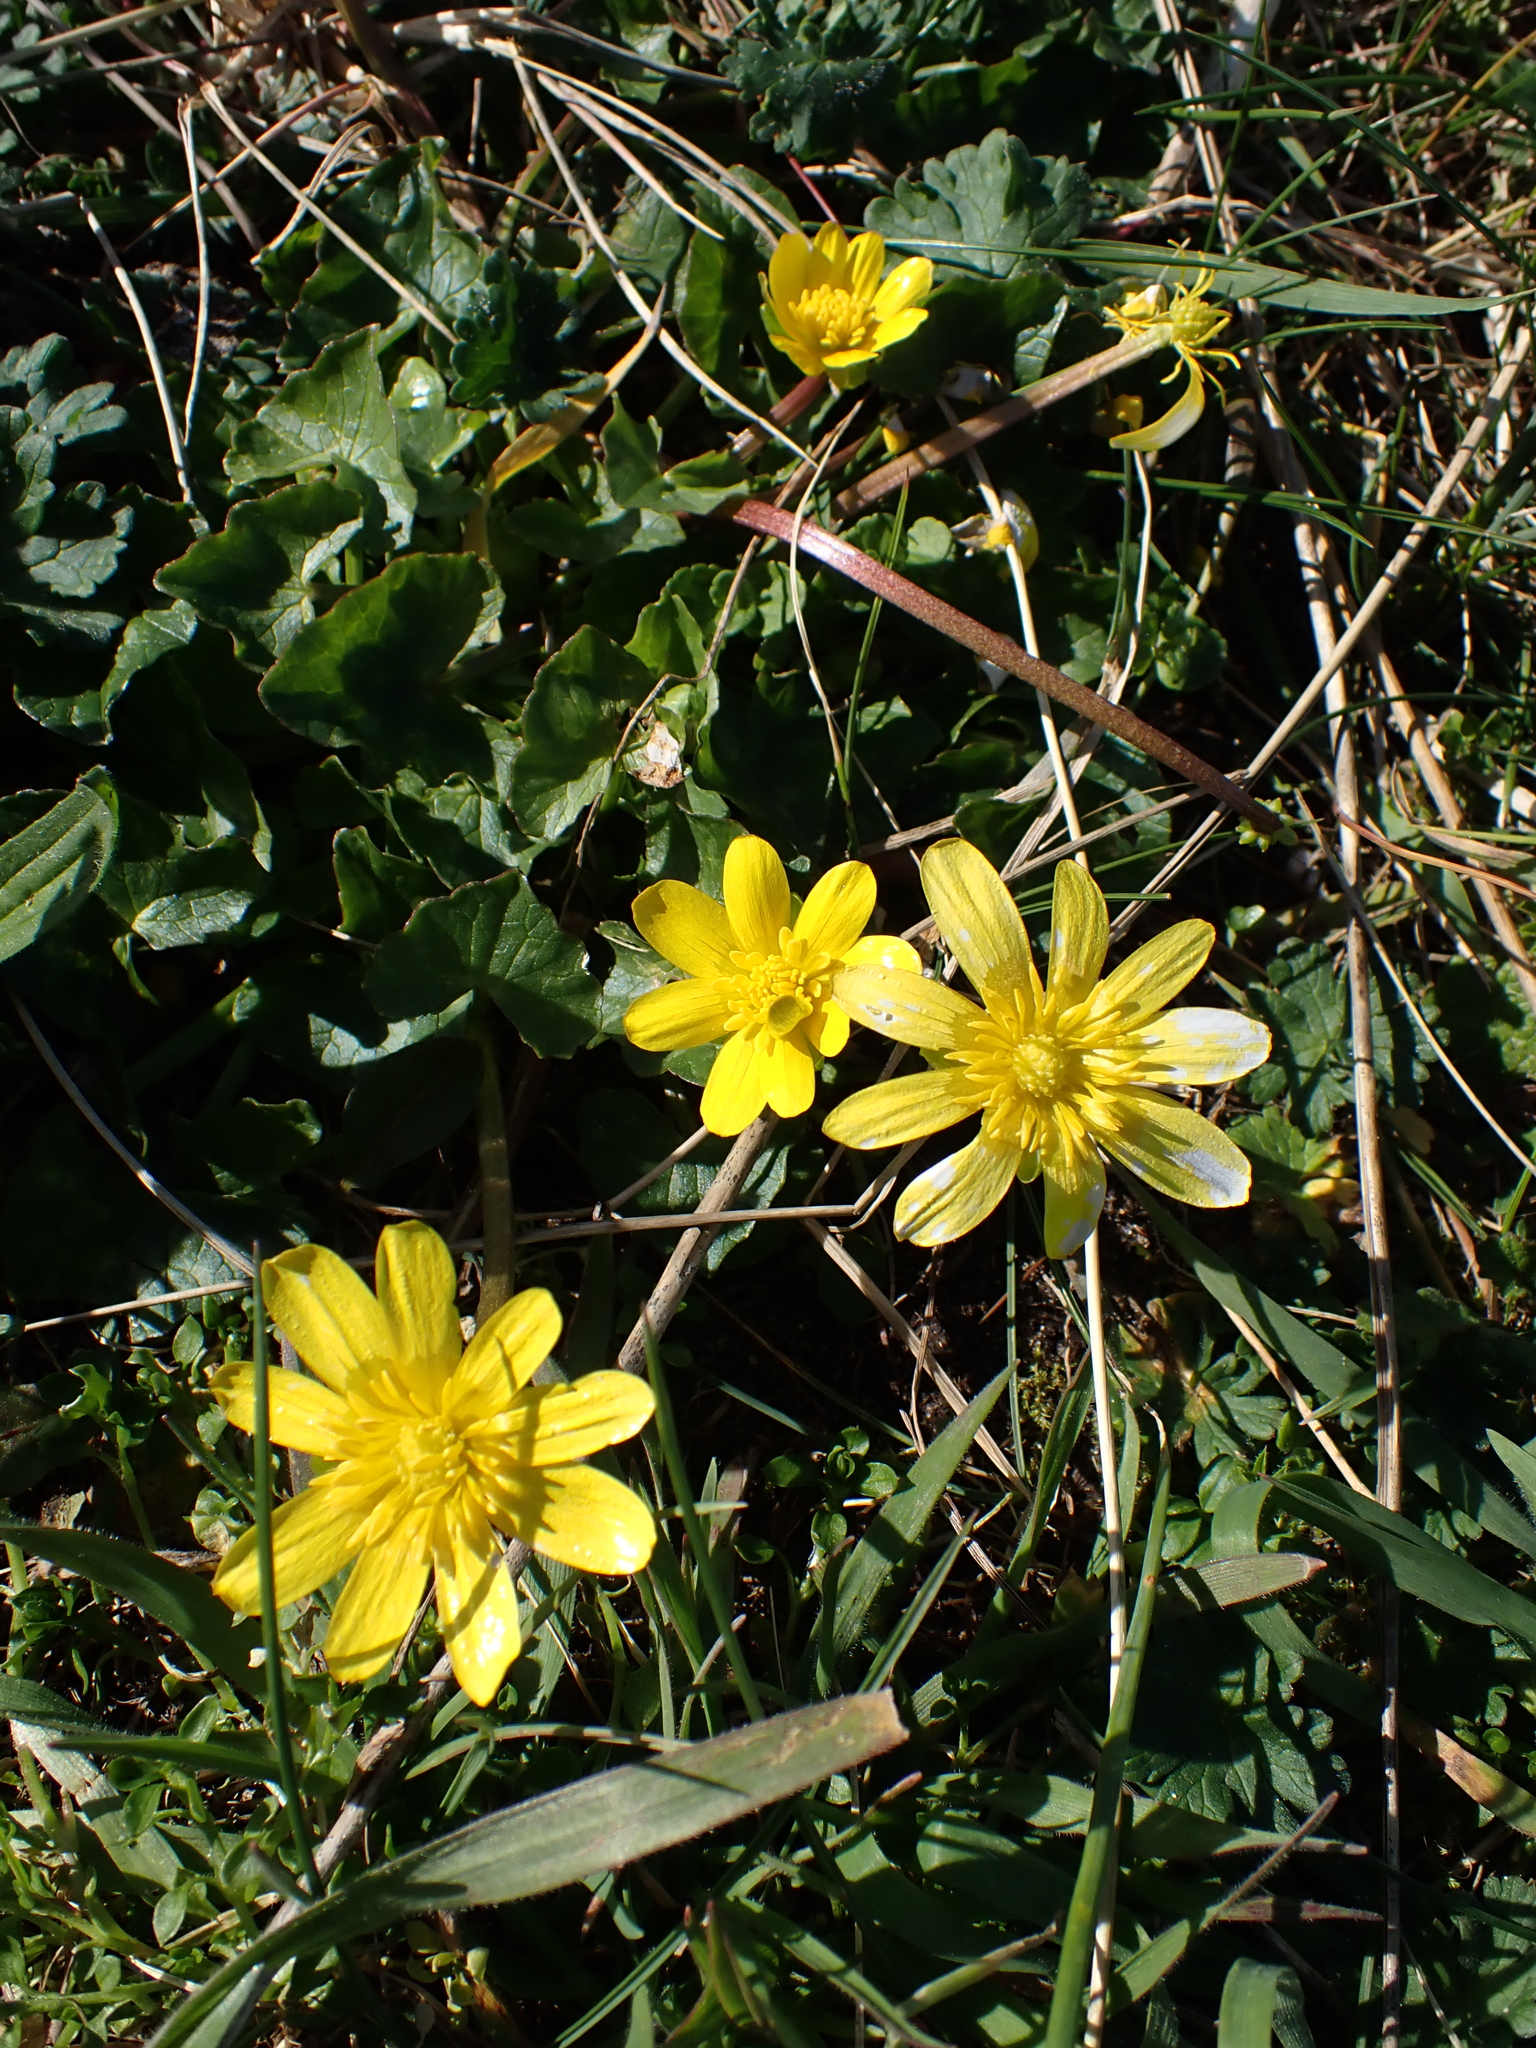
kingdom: Plantae
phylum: Tracheophyta
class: Magnoliopsida
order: Ranunculales
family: Ranunculaceae
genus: Ficaria
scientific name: Ficaria verna
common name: Lesser celandine
